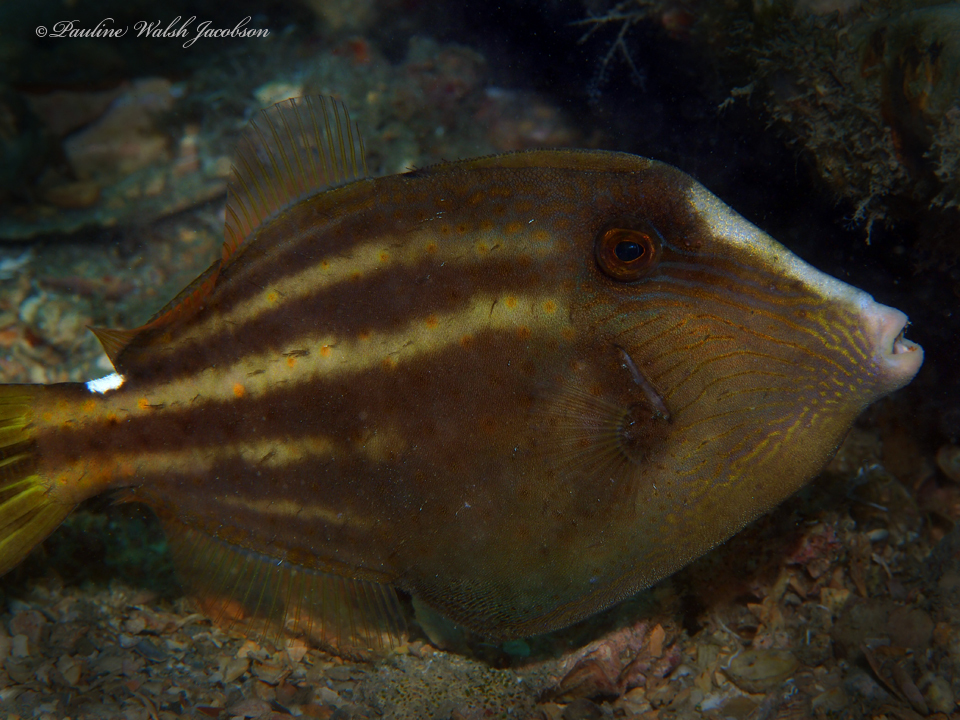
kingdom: Animalia
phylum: Chordata
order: Tetraodontiformes
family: Monacanthidae
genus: Cantherhines
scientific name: Cantherhines pullus
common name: Orangespotted filefish
